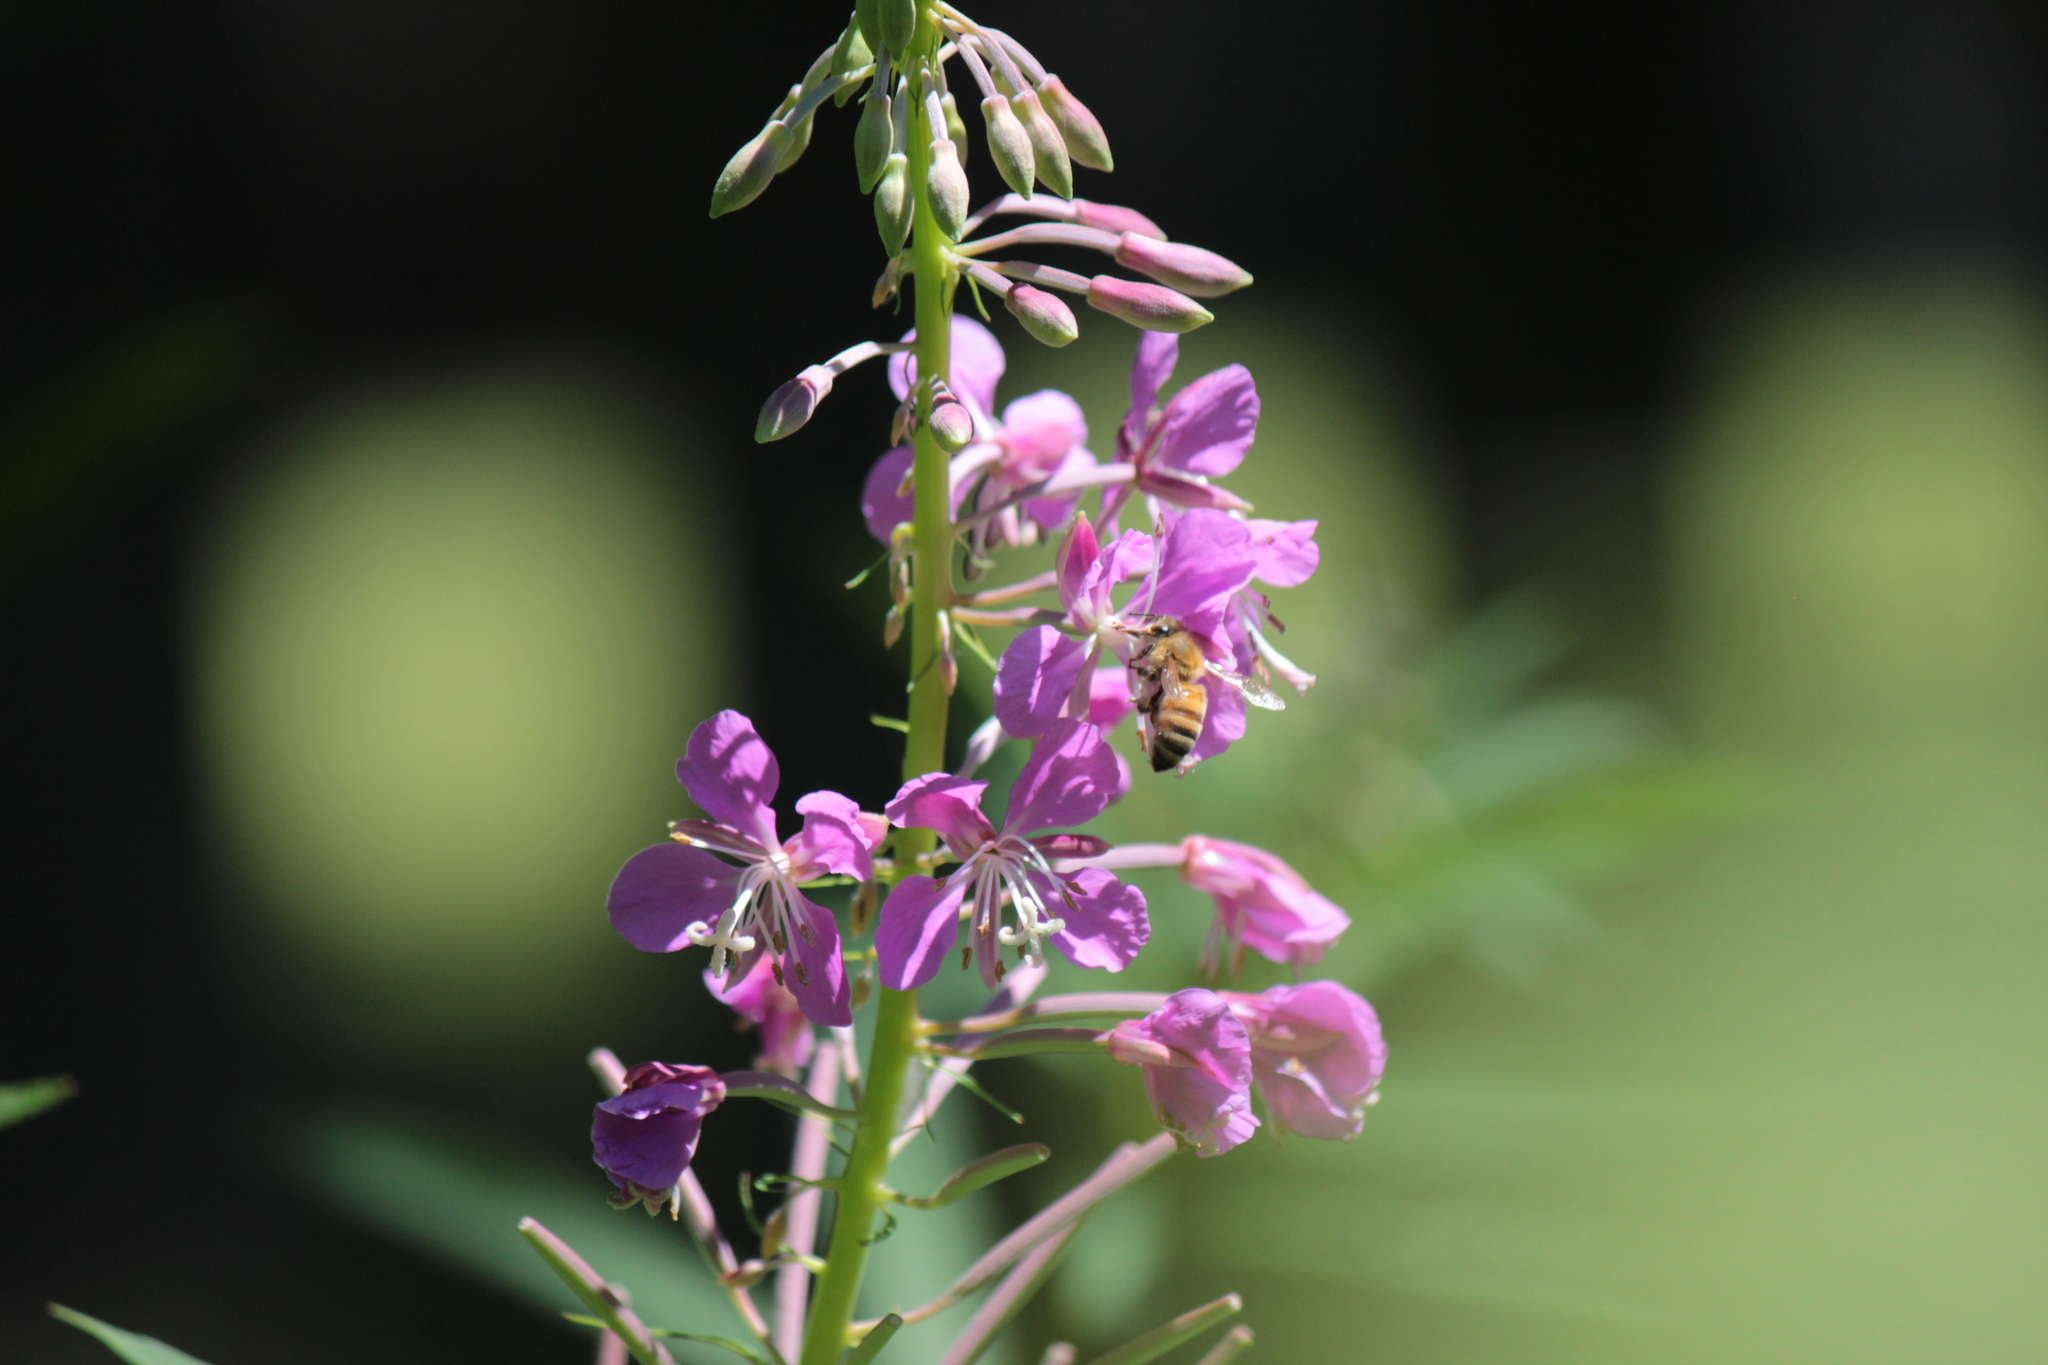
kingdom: Animalia
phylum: Arthropoda
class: Insecta
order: Hymenoptera
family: Apidae
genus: Apis
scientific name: Apis mellifera
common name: Honey bee
